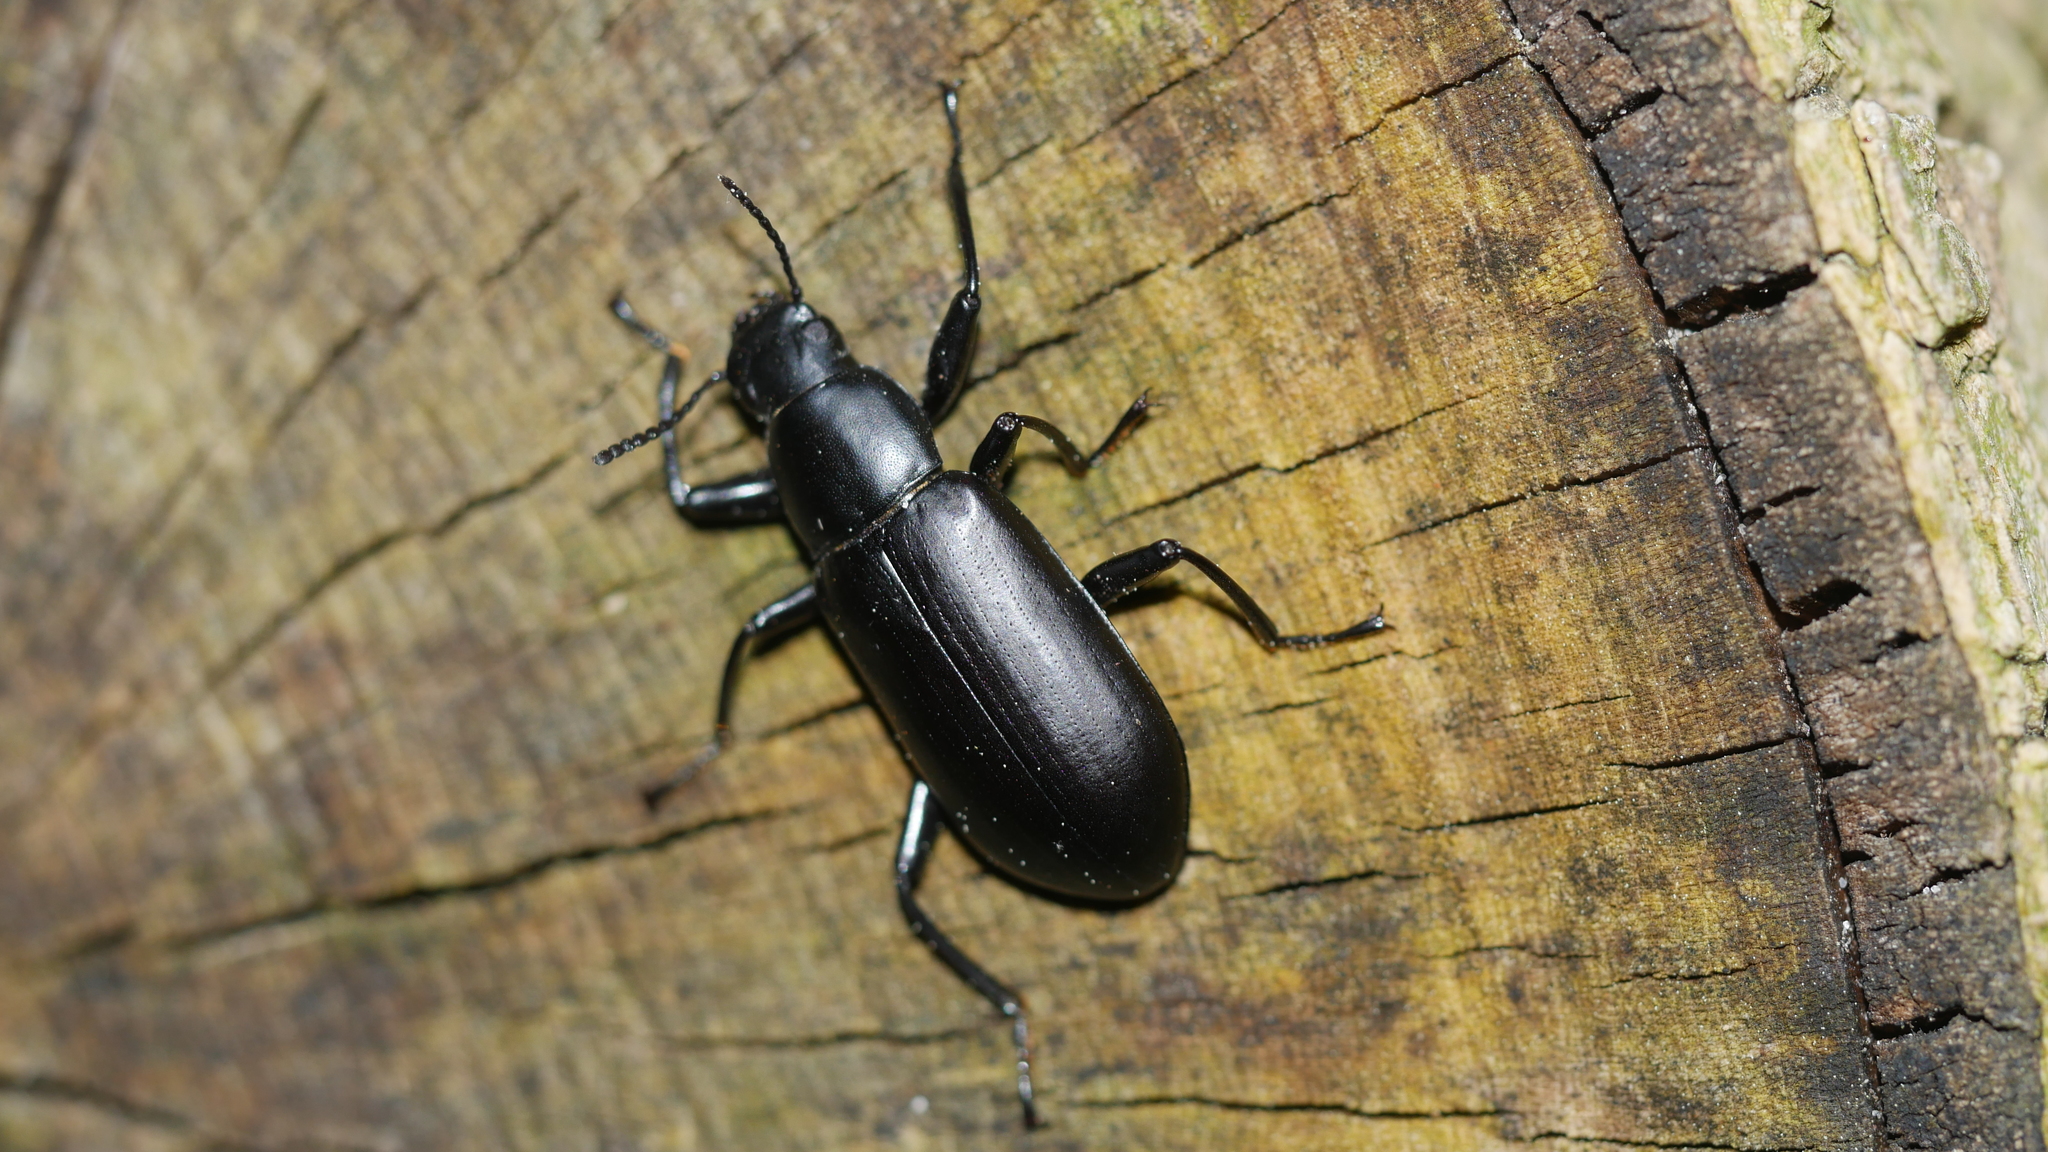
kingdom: Animalia
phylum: Arthropoda
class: Insecta
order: Coleoptera
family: Tenebrionidae
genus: Alobates
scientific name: Alobates
